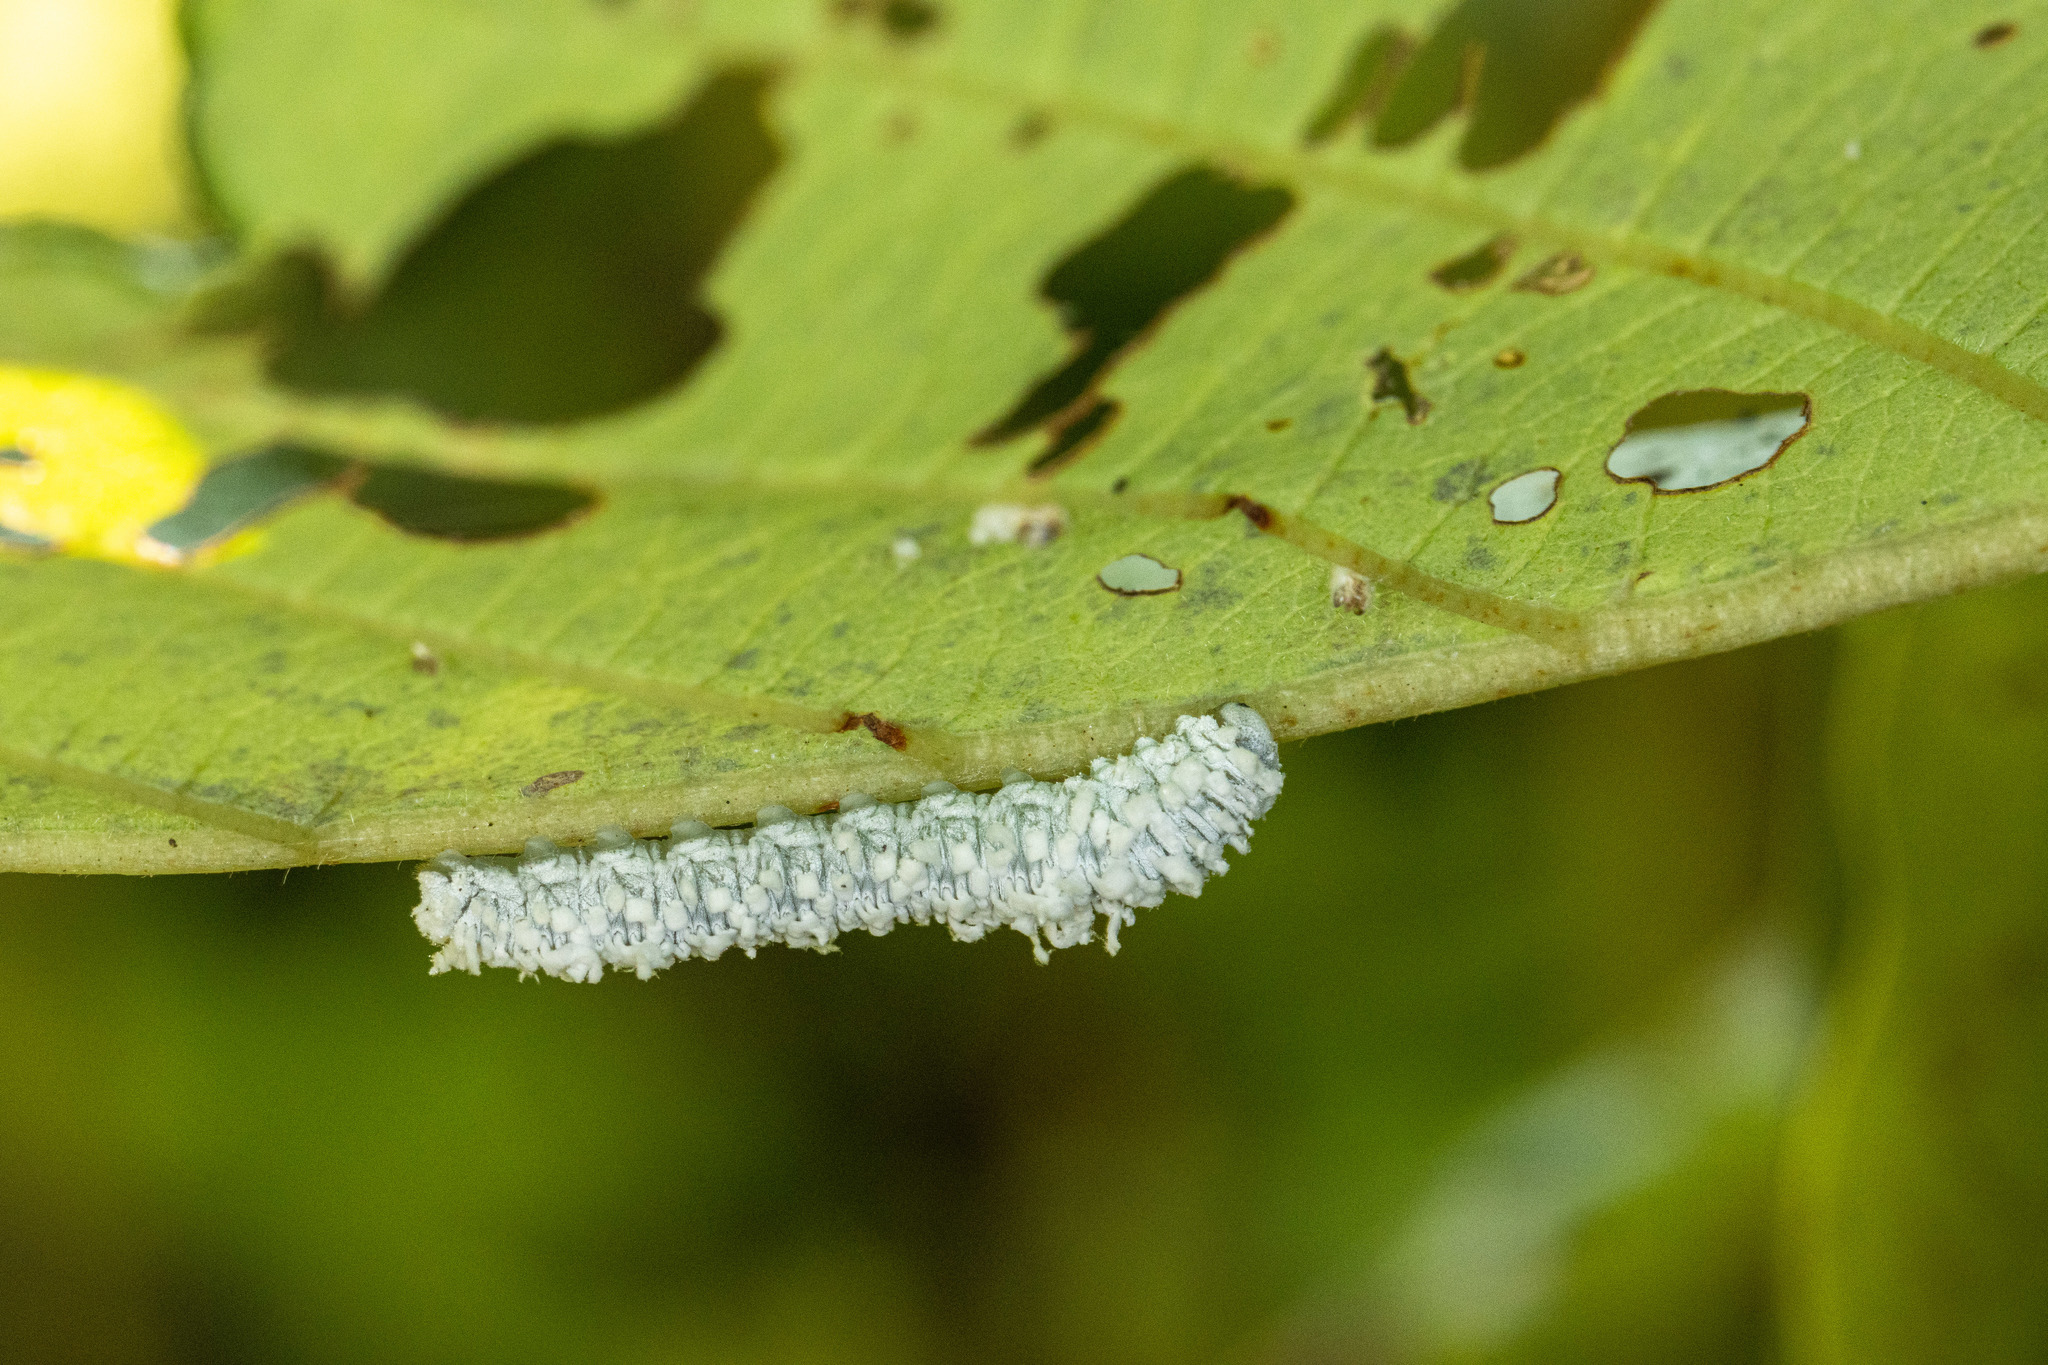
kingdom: Animalia
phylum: Arthropoda
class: Insecta
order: Hymenoptera
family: Tenthredinidae
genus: Eriocampa
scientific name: Eriocampa ovata
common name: Alder wooly sawfly
